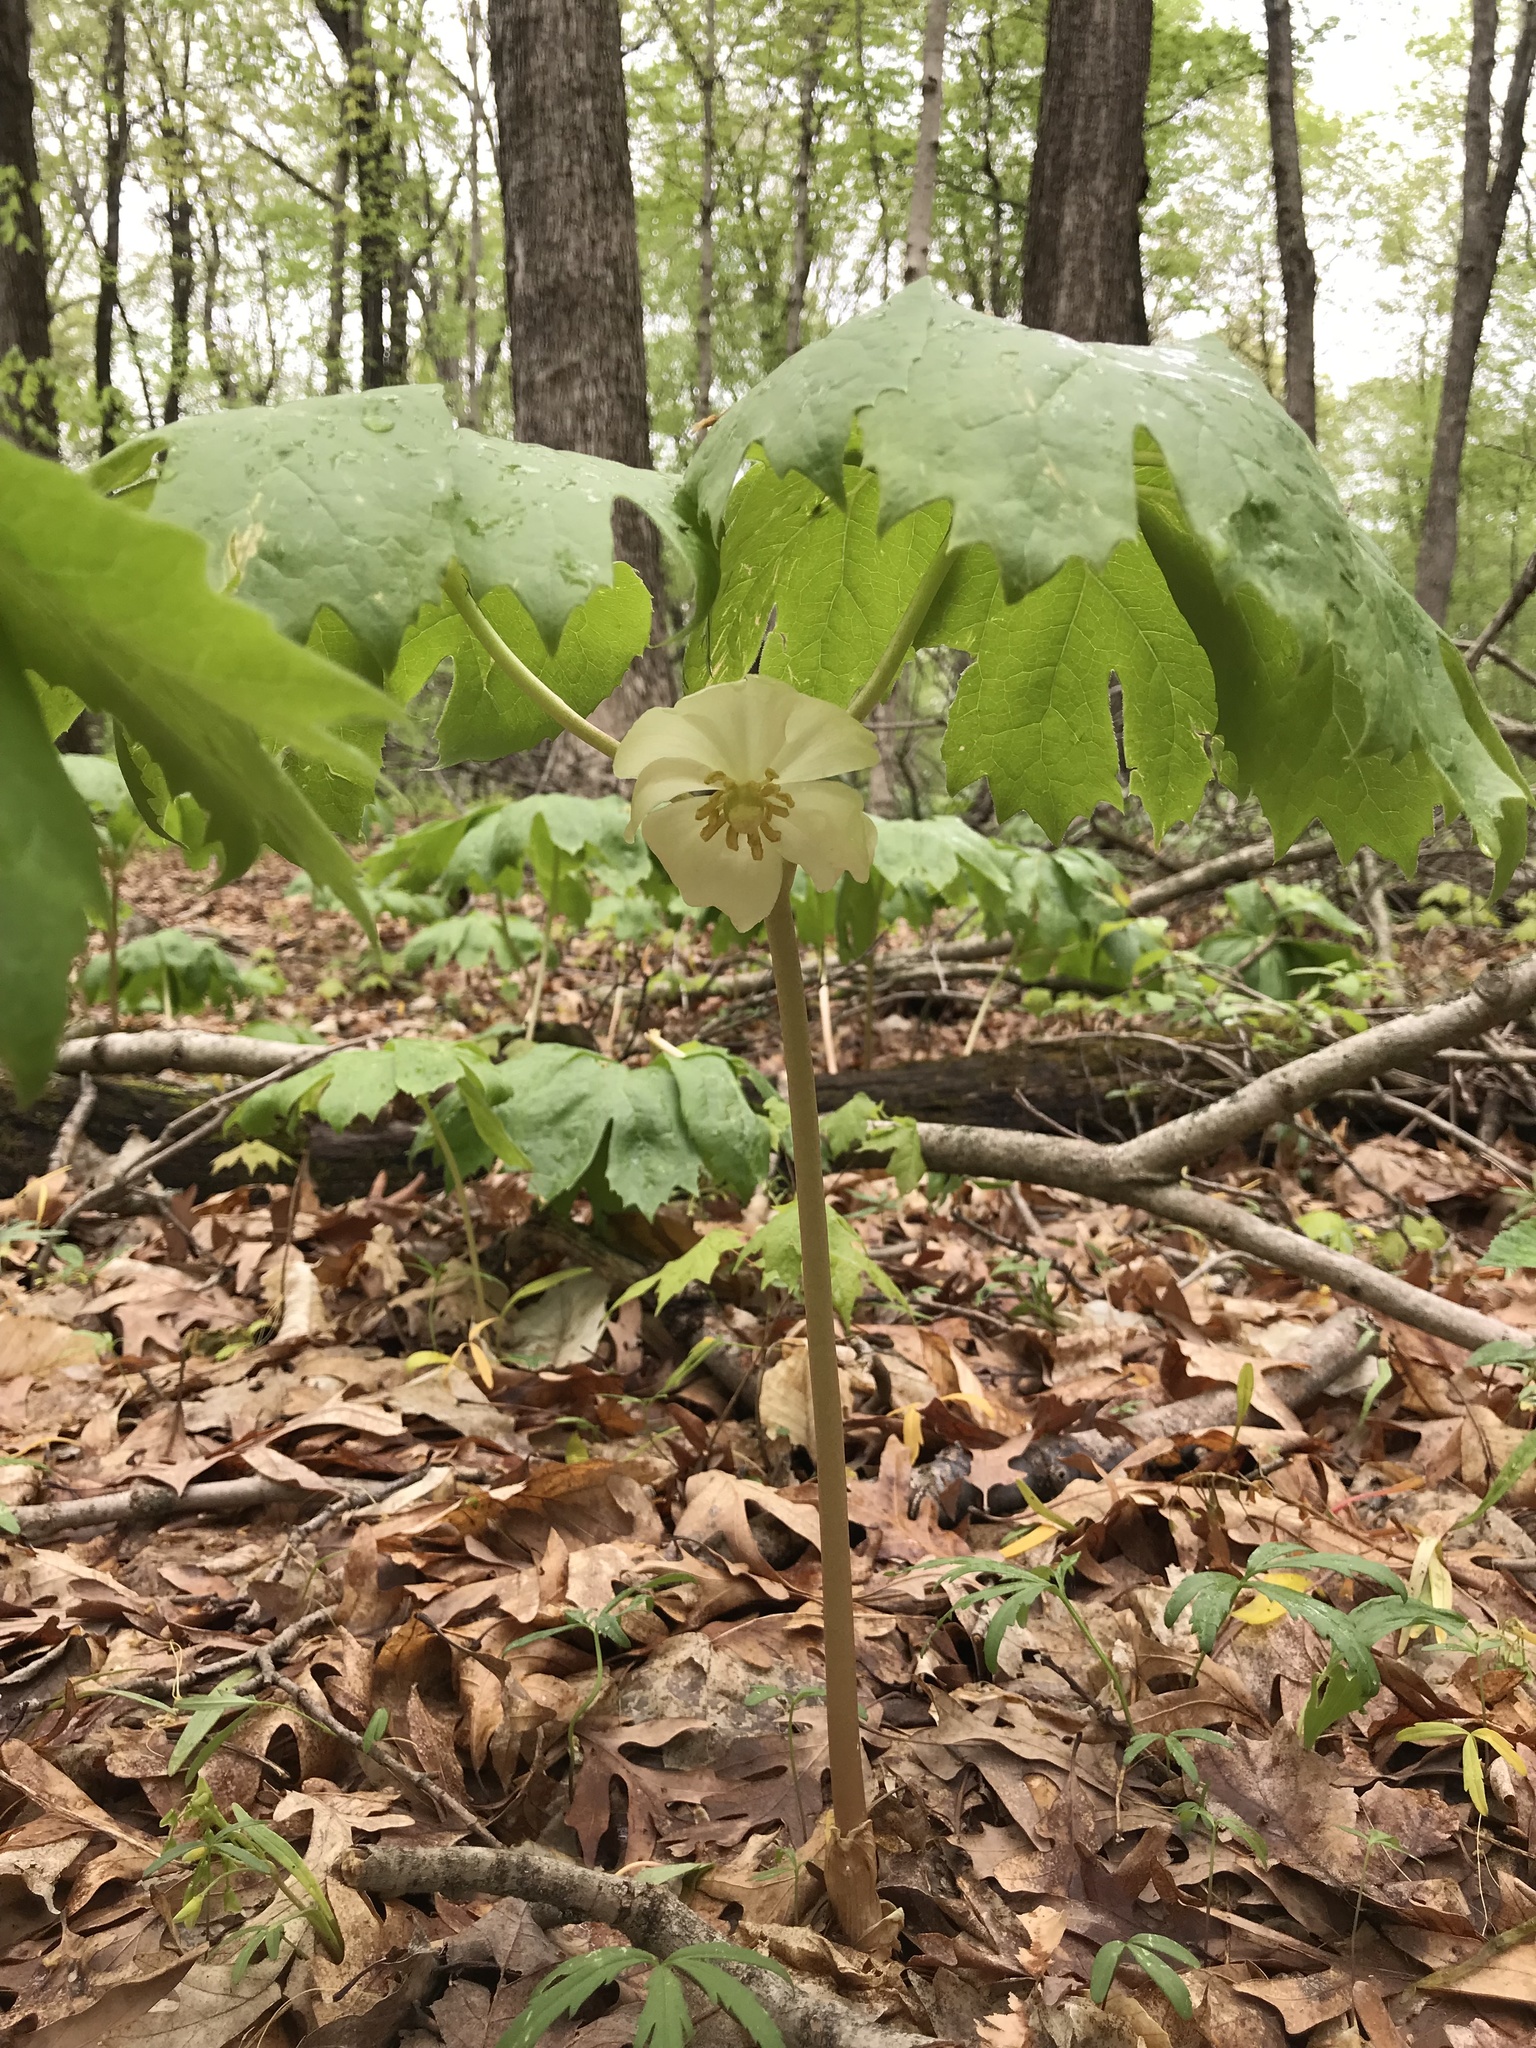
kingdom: Plantae
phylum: Tracheophyta
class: Magnoliopsida
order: Ranunculales
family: Berberidaceae
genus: Podophyllum
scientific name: Podophyllum peltatum
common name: Wild mandrake
